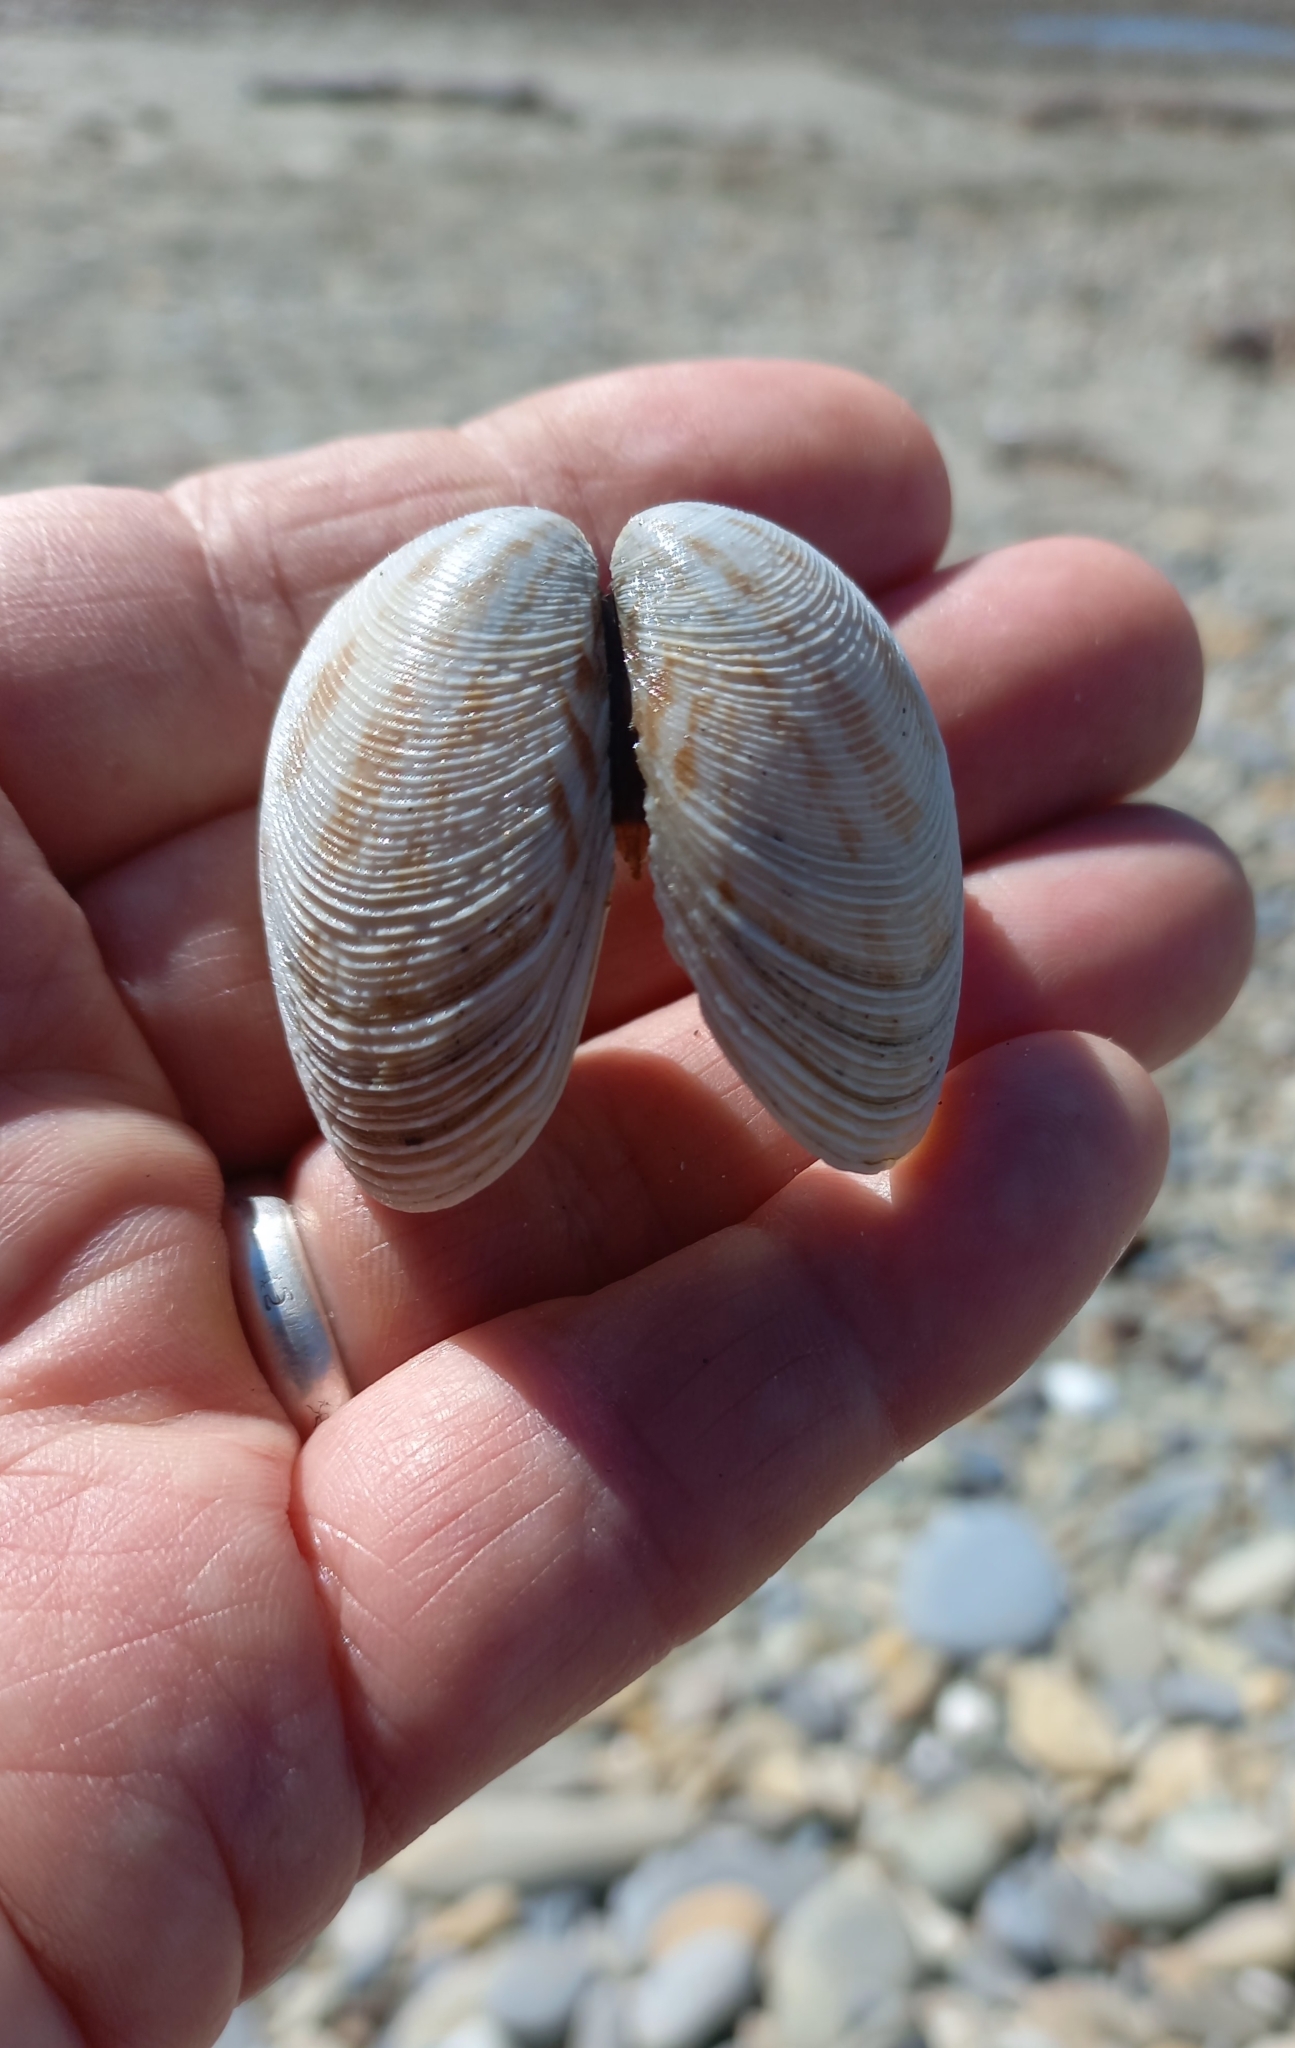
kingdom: Animalia
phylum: Mollusca
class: Bivalvia
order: Venerida
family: Veneridae
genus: Dosina
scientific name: Dosina mactracea
